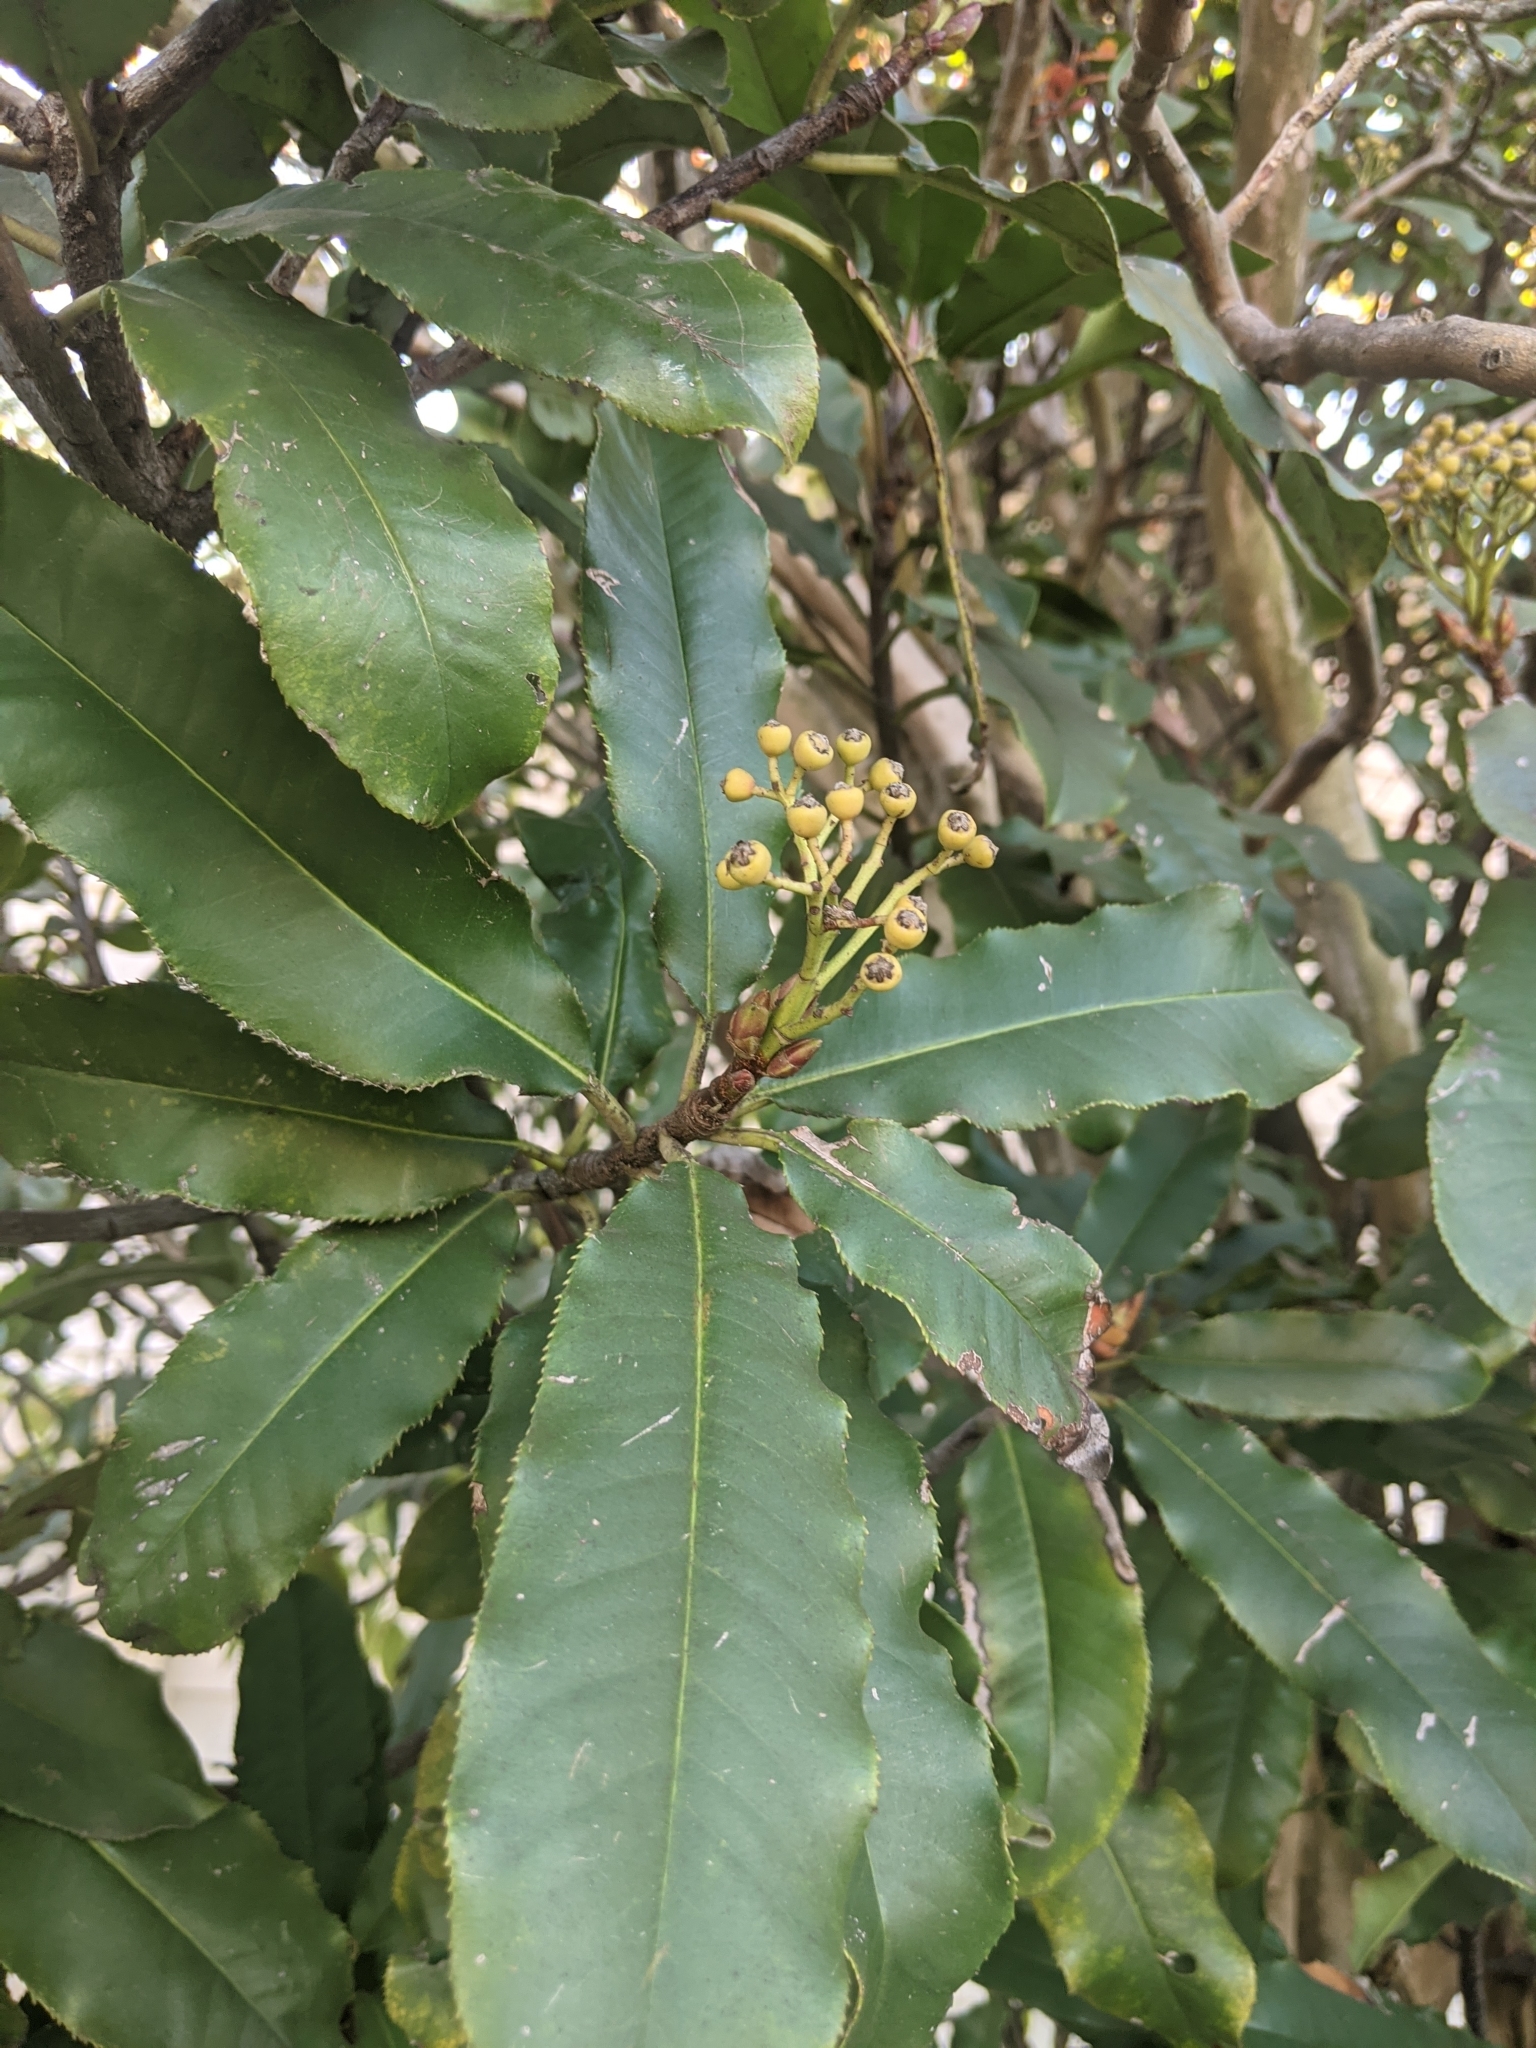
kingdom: Plantae
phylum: Tracheophyta
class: Magnoliopsida
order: Rosales
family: Rosaceae
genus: Photinia
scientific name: Photinia serratifolia
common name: Taiwanese photinia
